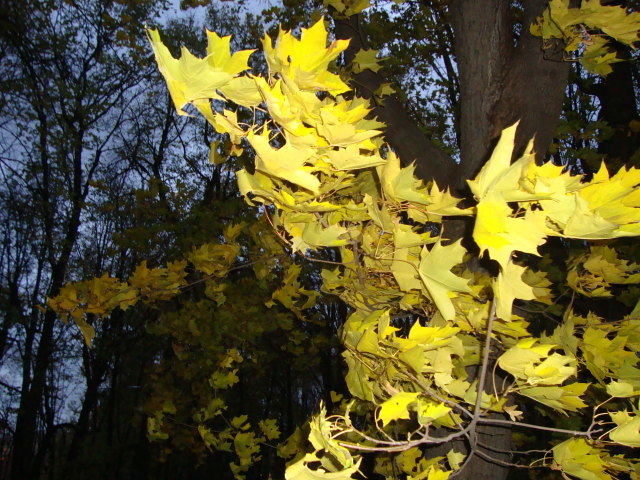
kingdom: Plantae
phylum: Tracheophyta
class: Magnoliopsida
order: Sapindales
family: Sapindaceae
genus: Acer
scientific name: Acer platanoides
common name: Norway maple
